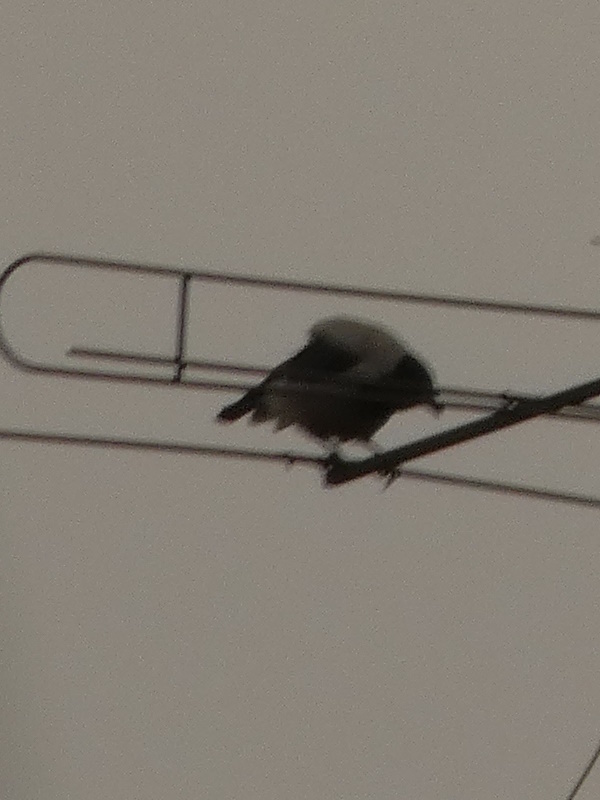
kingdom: Animalia
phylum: Chordata
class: Aves
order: Passeriformes
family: Corvidae
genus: Corvus
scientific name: Corvus cornix
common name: Hooded crow
